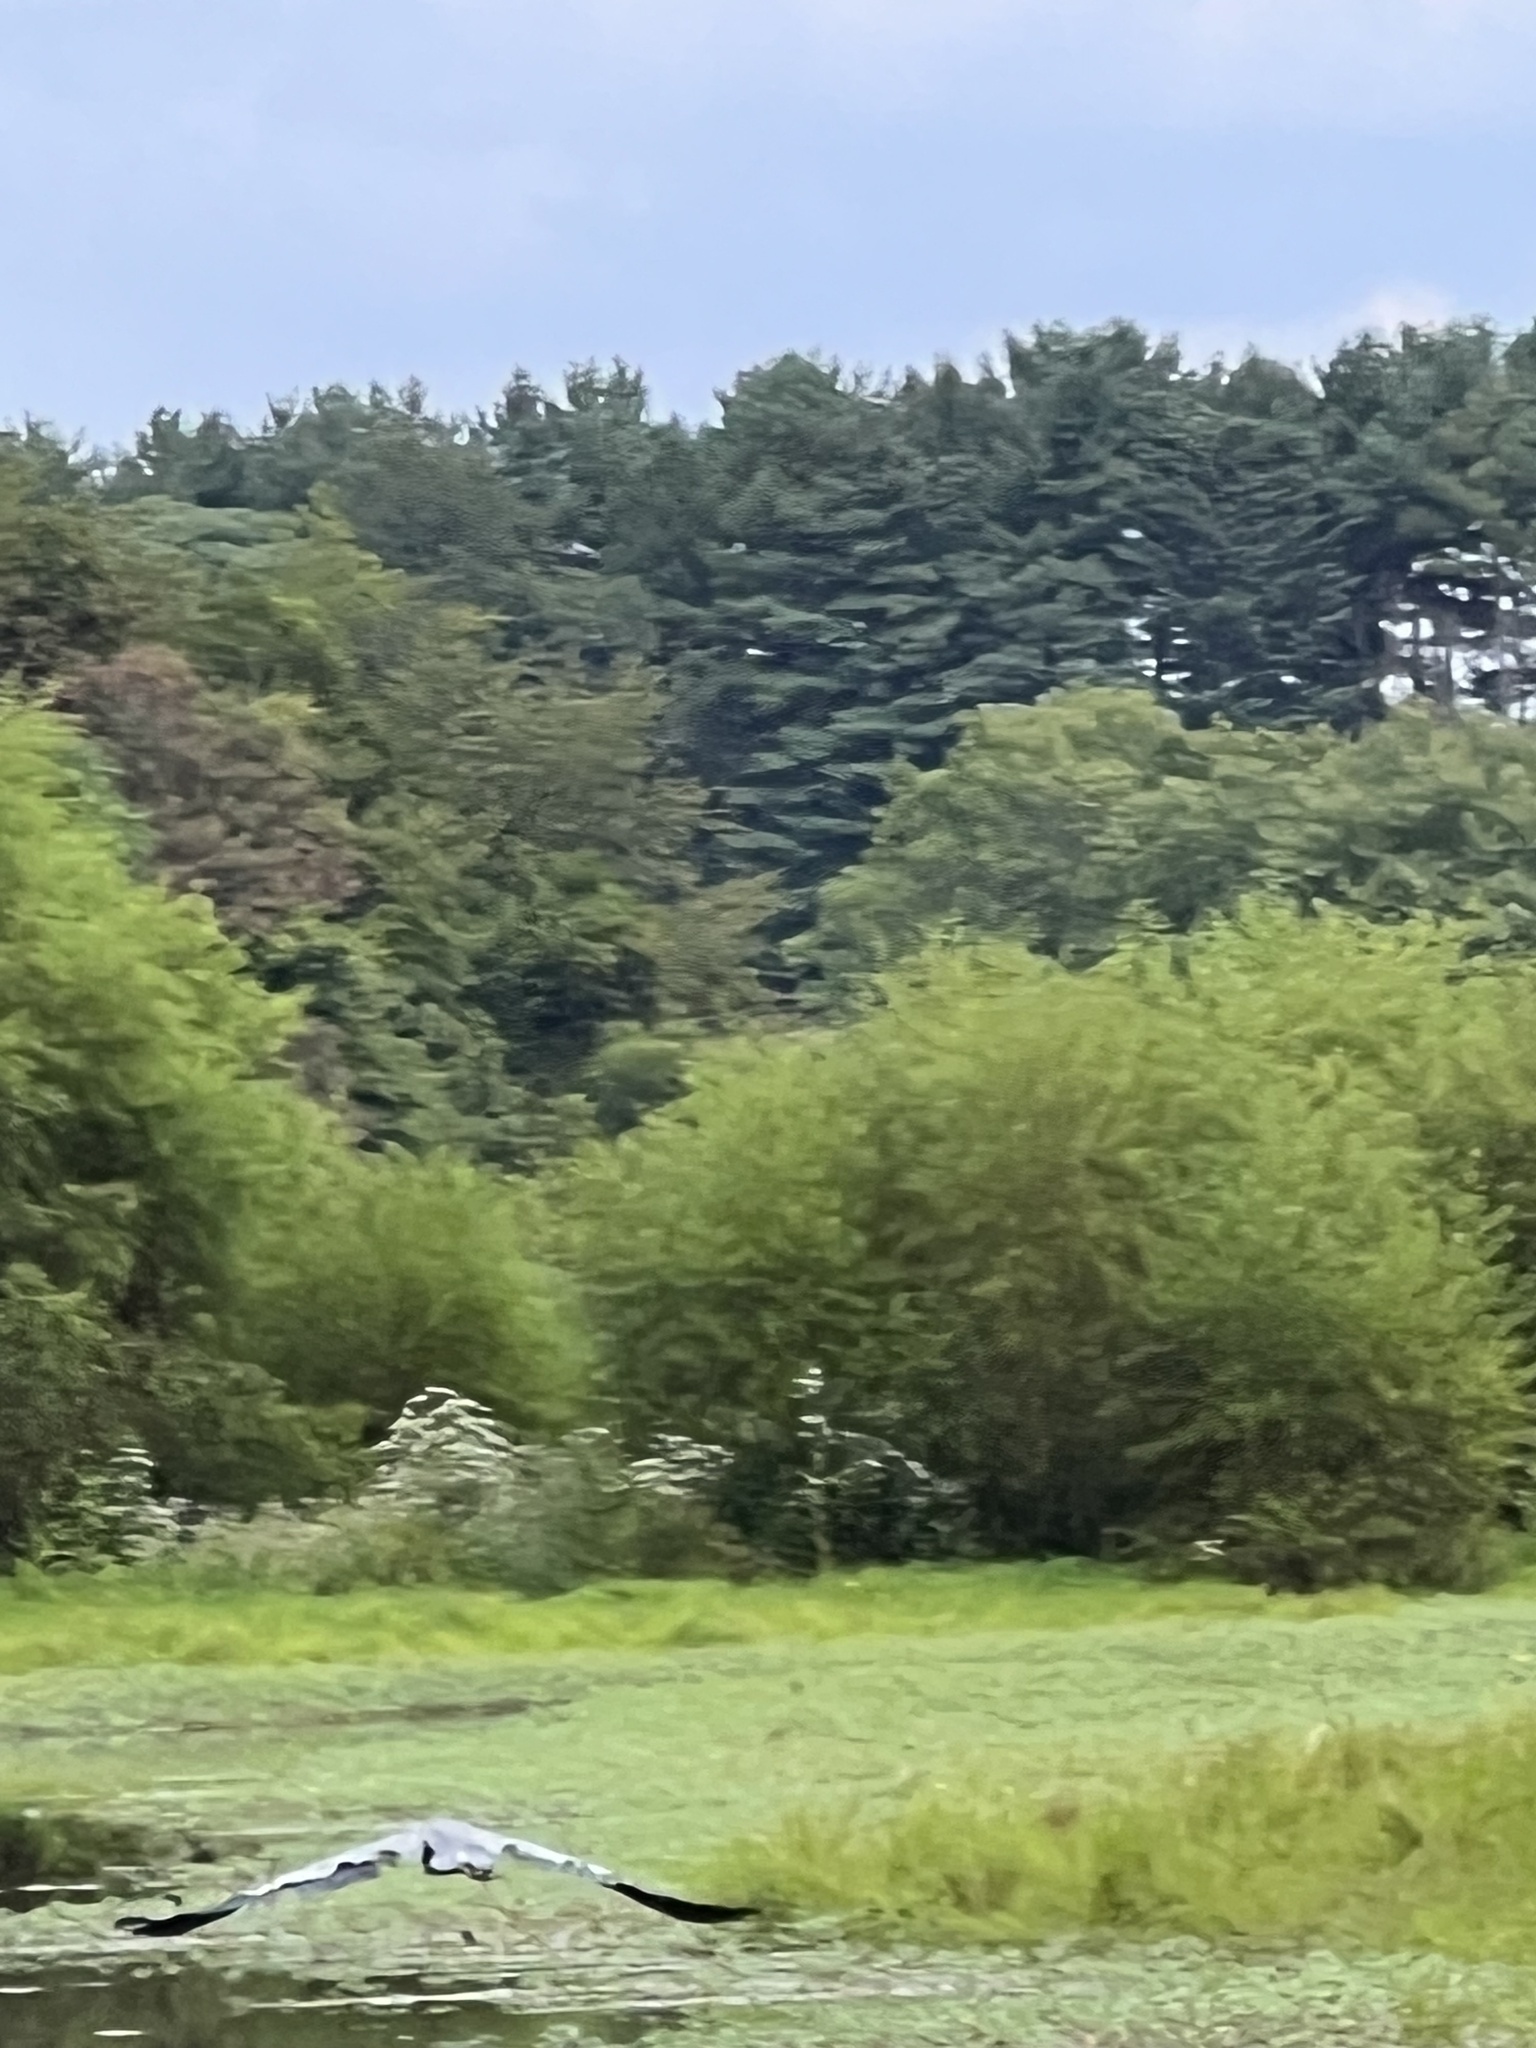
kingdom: Animalia
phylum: Chordata
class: Aves
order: Pelecaniformes
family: Ardeidae
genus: Ardea
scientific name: Ardea herodias
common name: Great blue heron
